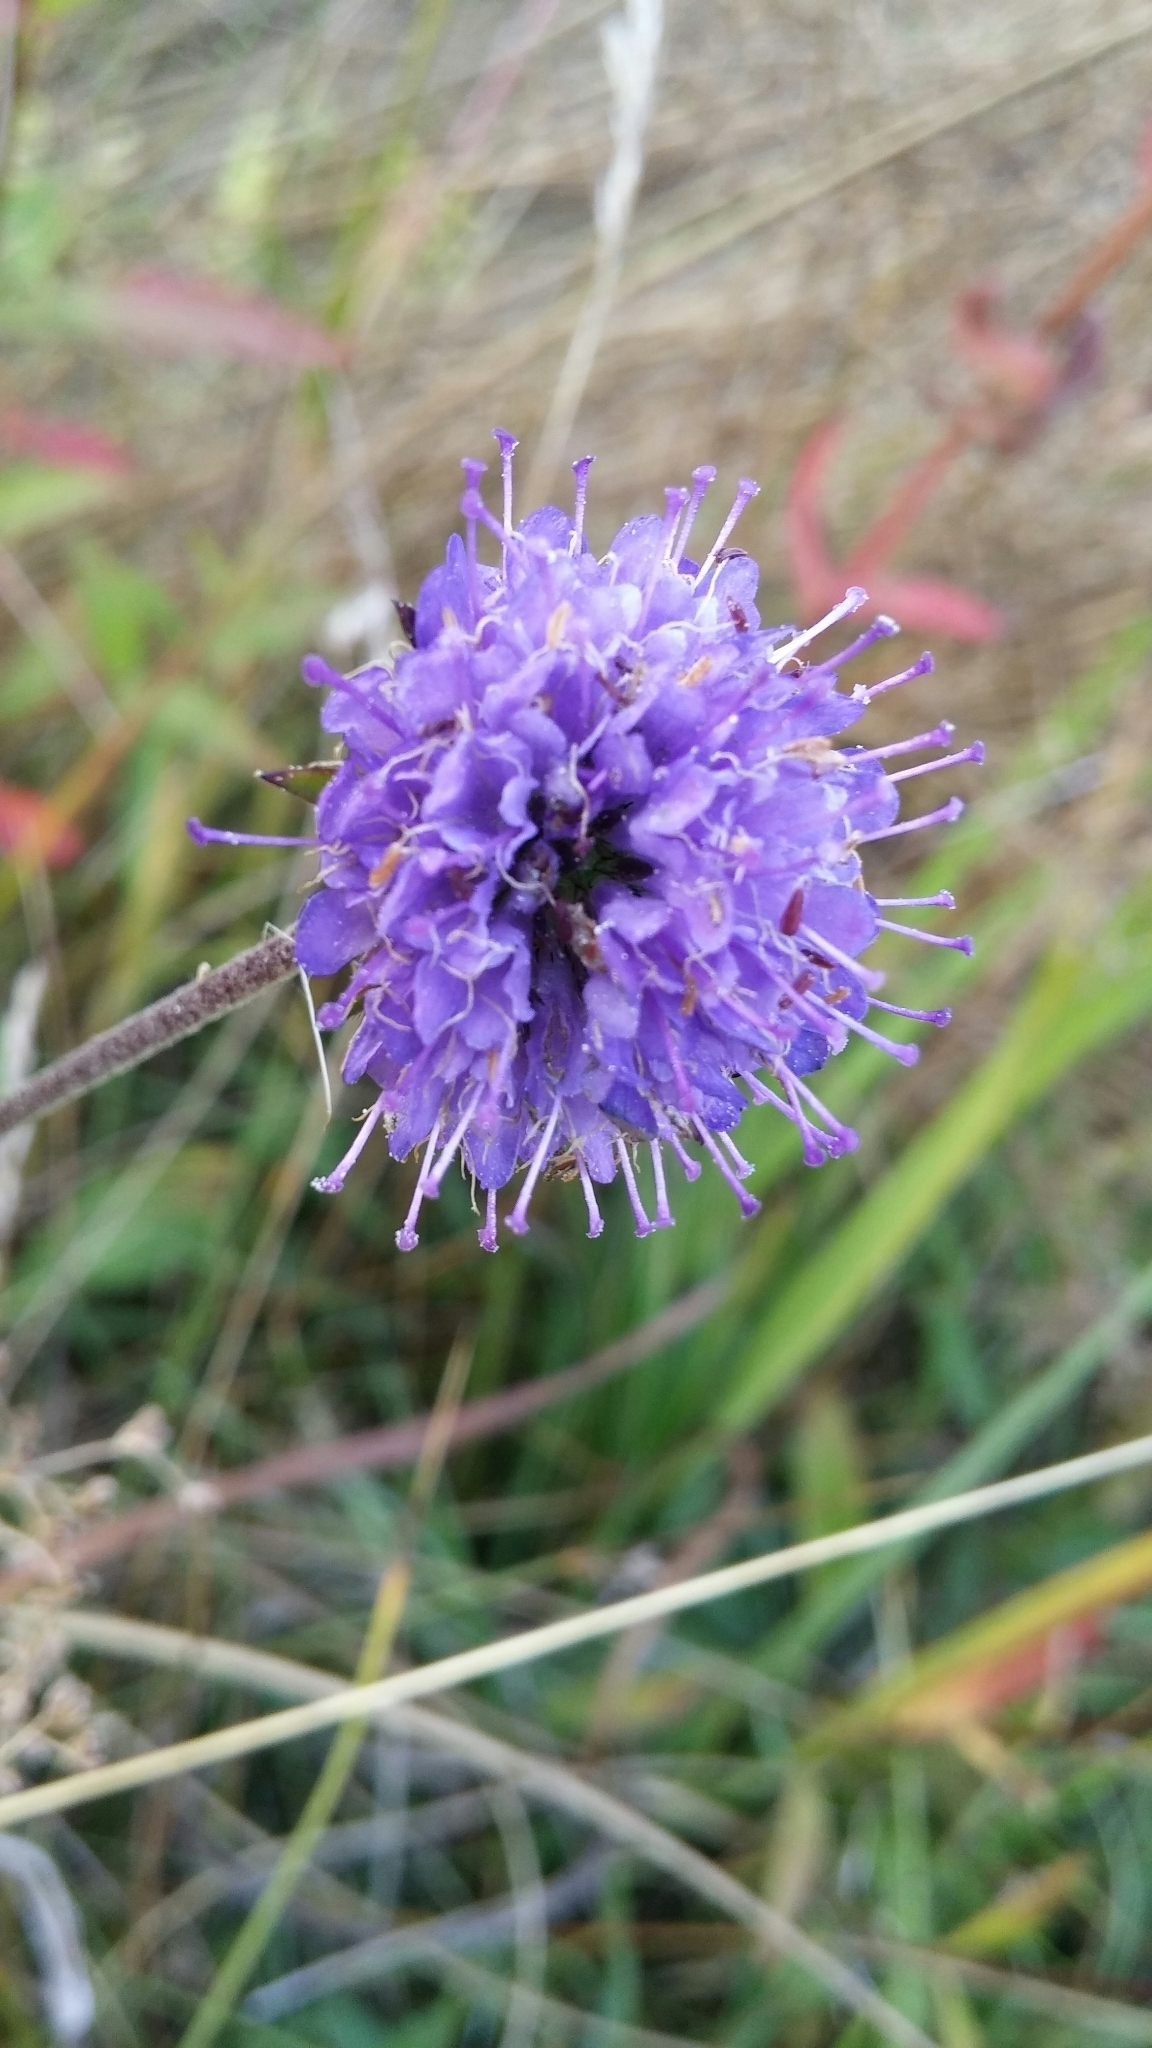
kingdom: Plantae
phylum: Tracheophyta
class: Magnoliopsida
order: Dipsacales
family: Caprifoliaceae
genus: Succisa
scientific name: Succisa pratensis
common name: Devil's-bit
